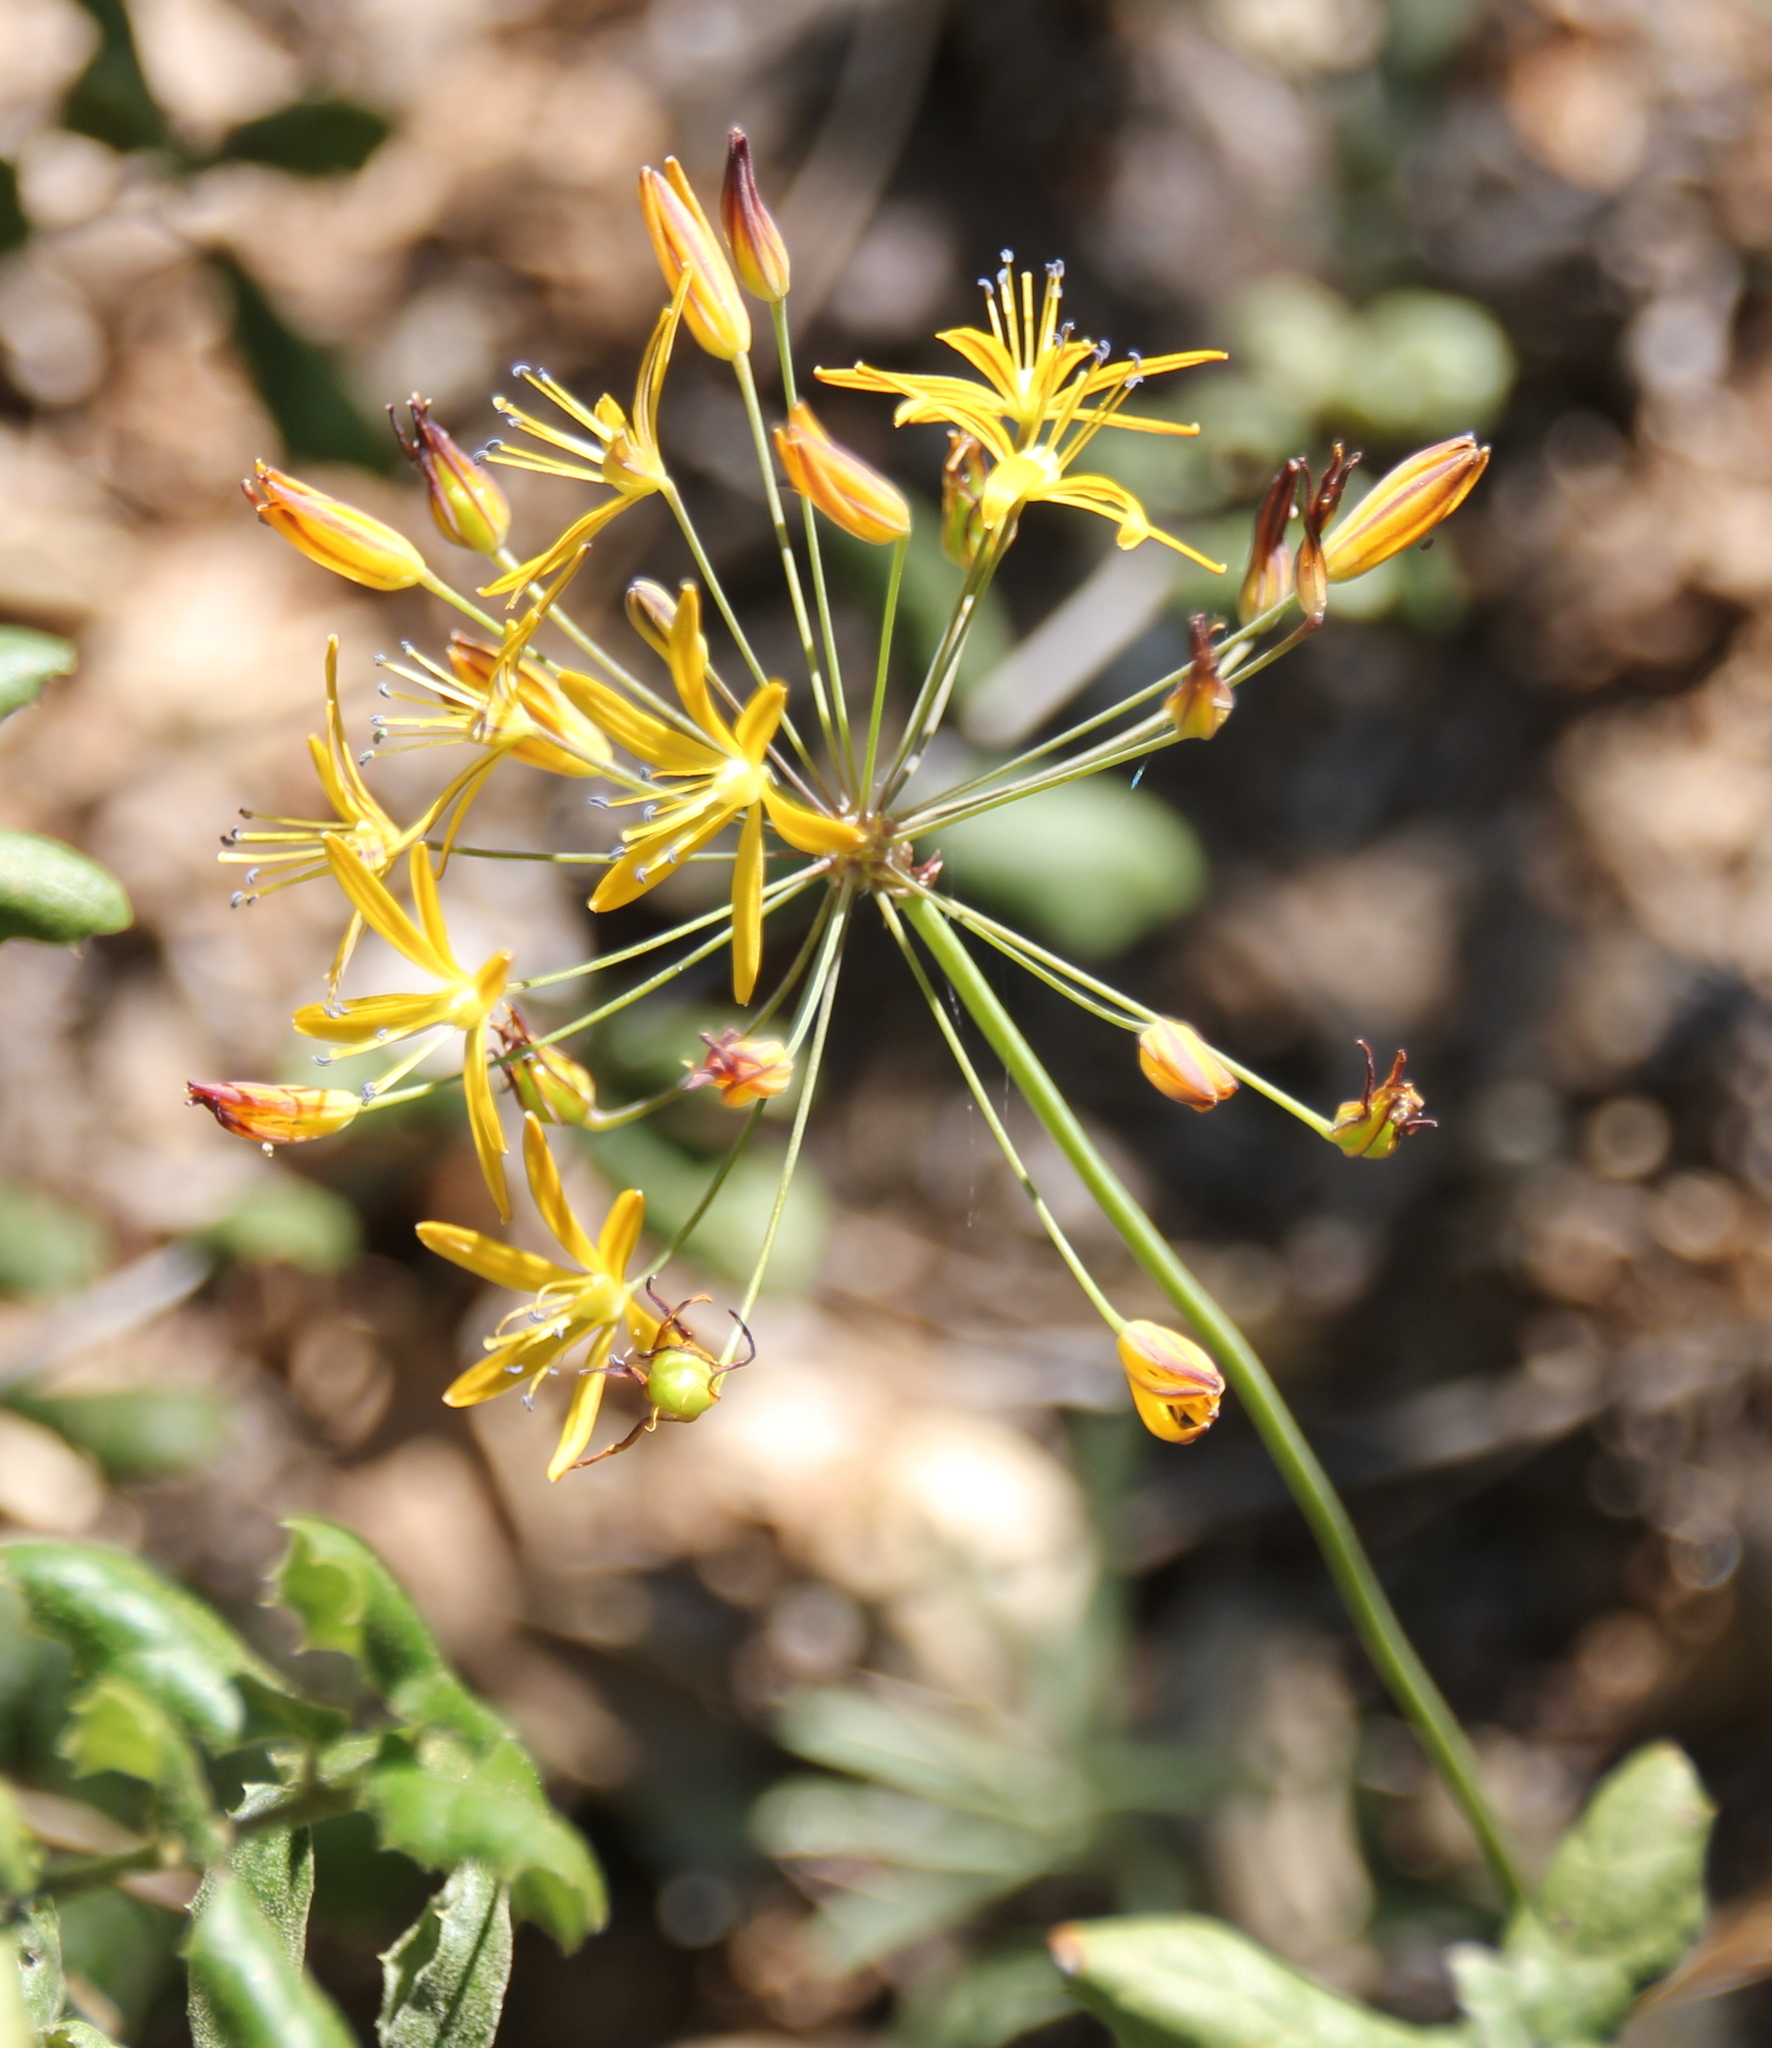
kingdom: Plantae
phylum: Tracheophyta
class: Liliopsida
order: Asparagales
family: Asparagaceae
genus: Bloomeria
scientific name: Bloomeria crocea
